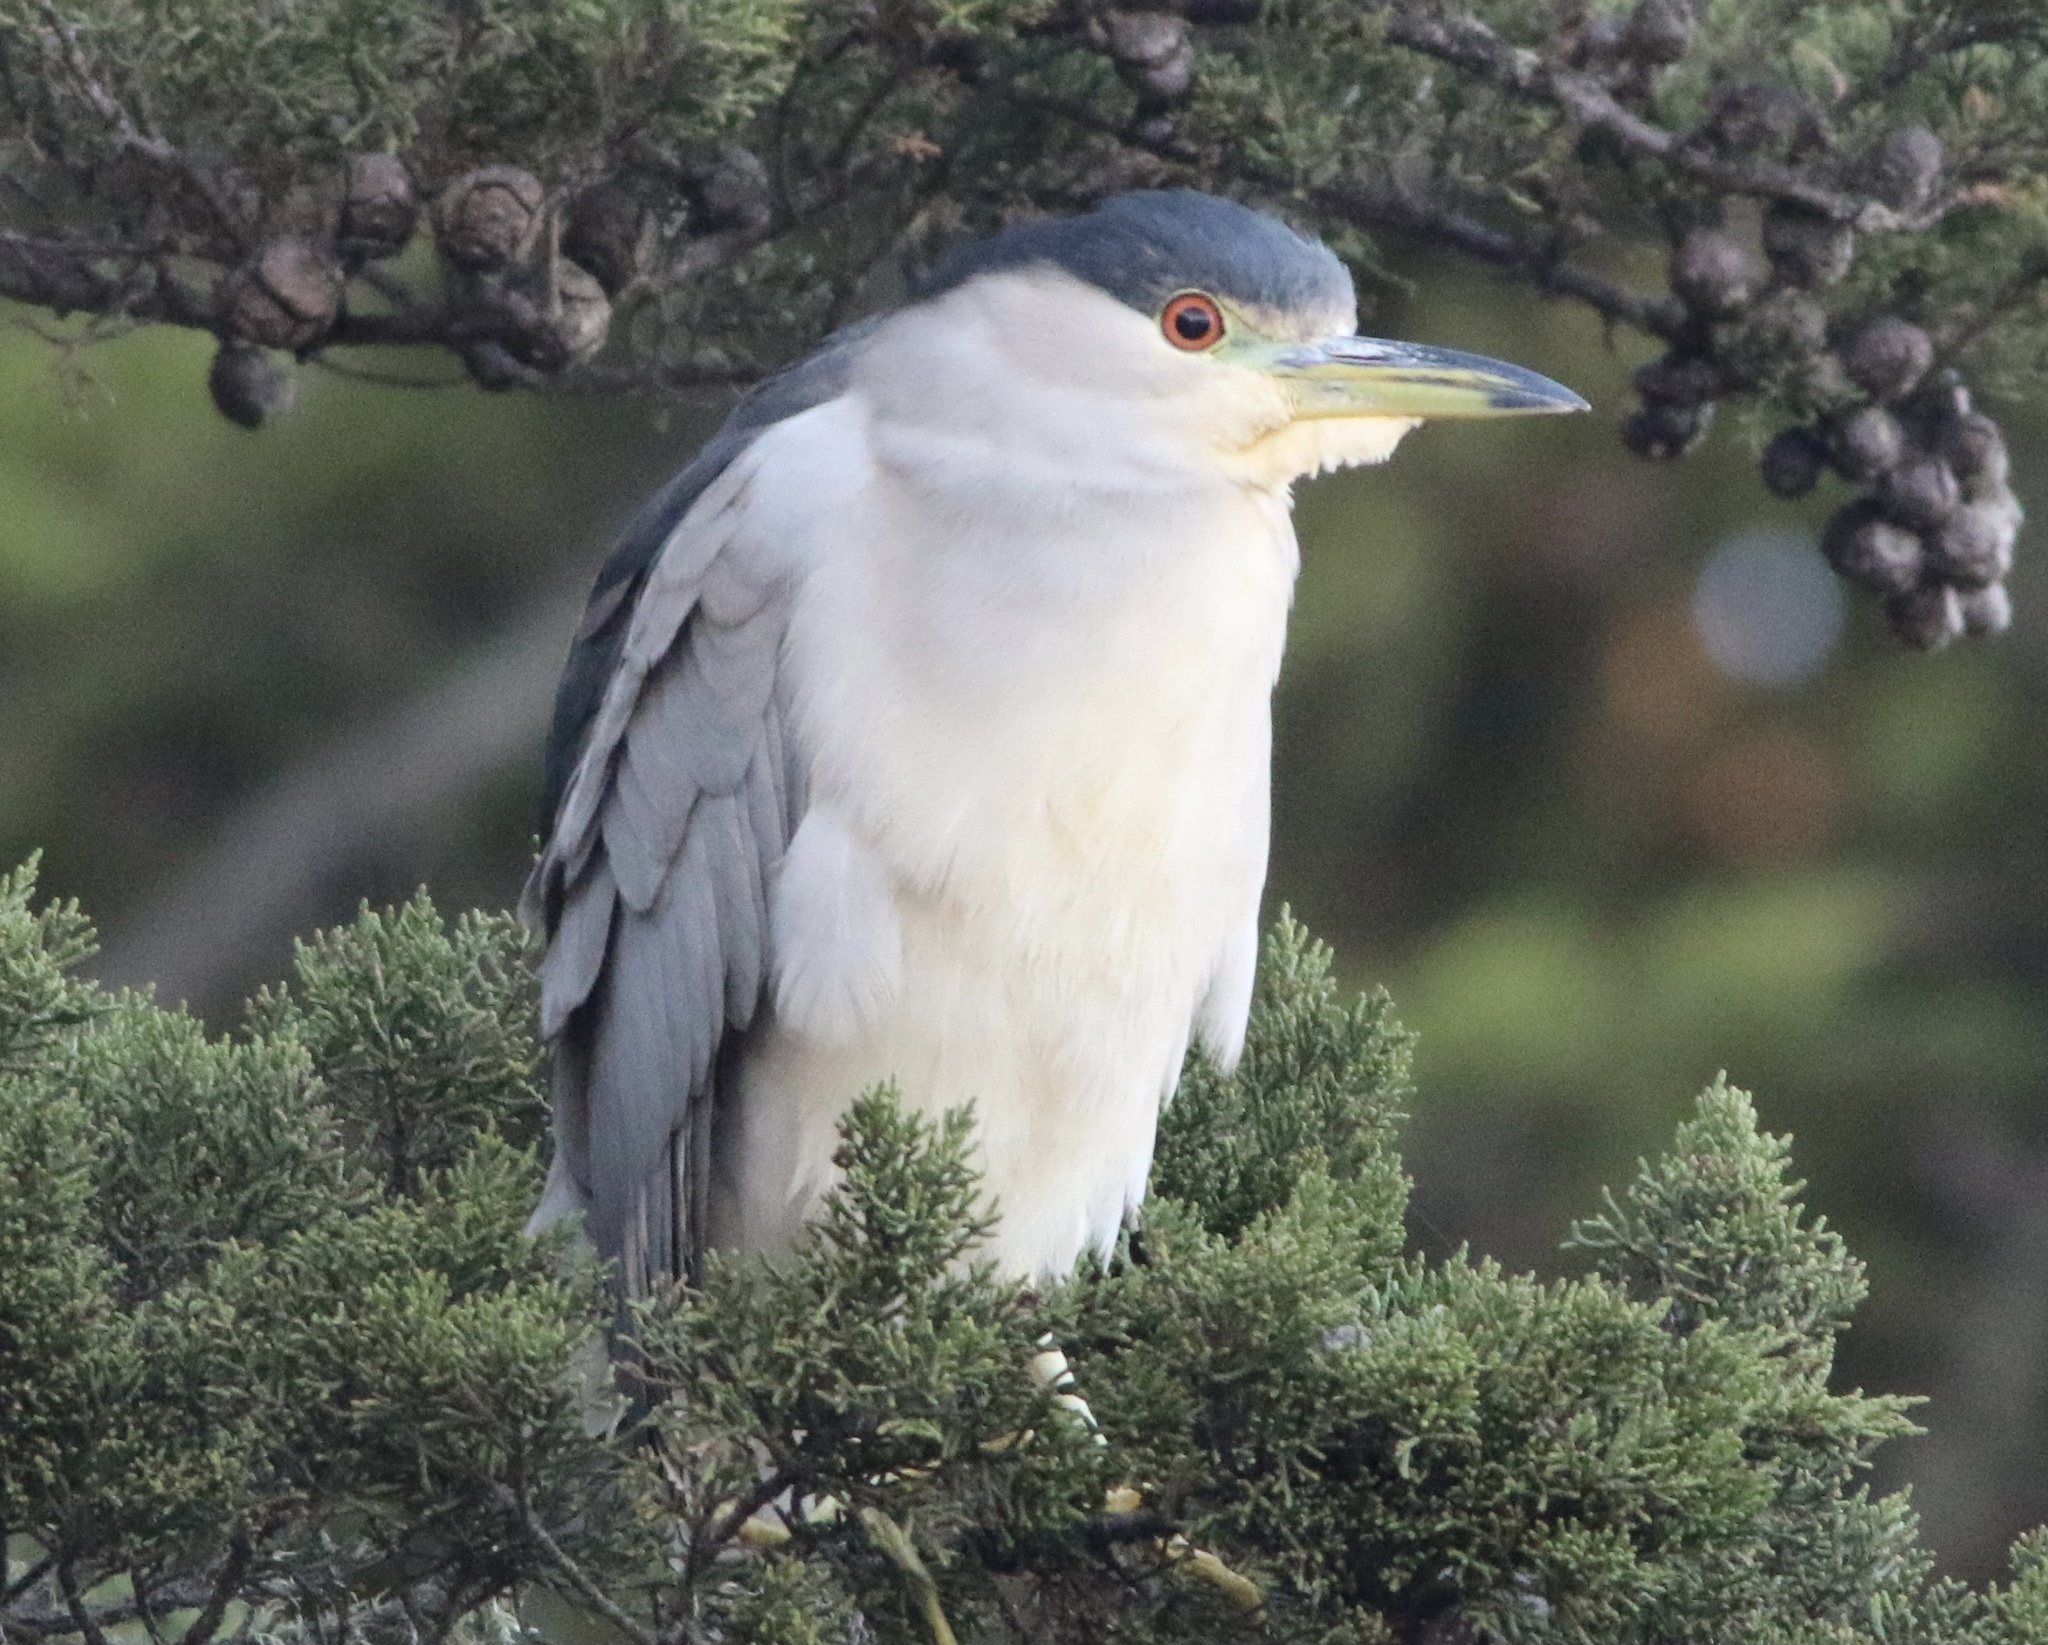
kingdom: Animalia
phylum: Chordata
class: Aves
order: Pelecaniformes
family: Ardeidae
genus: Nycticorax
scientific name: Nycticorax nycticorax
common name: Black-crowned night heron
